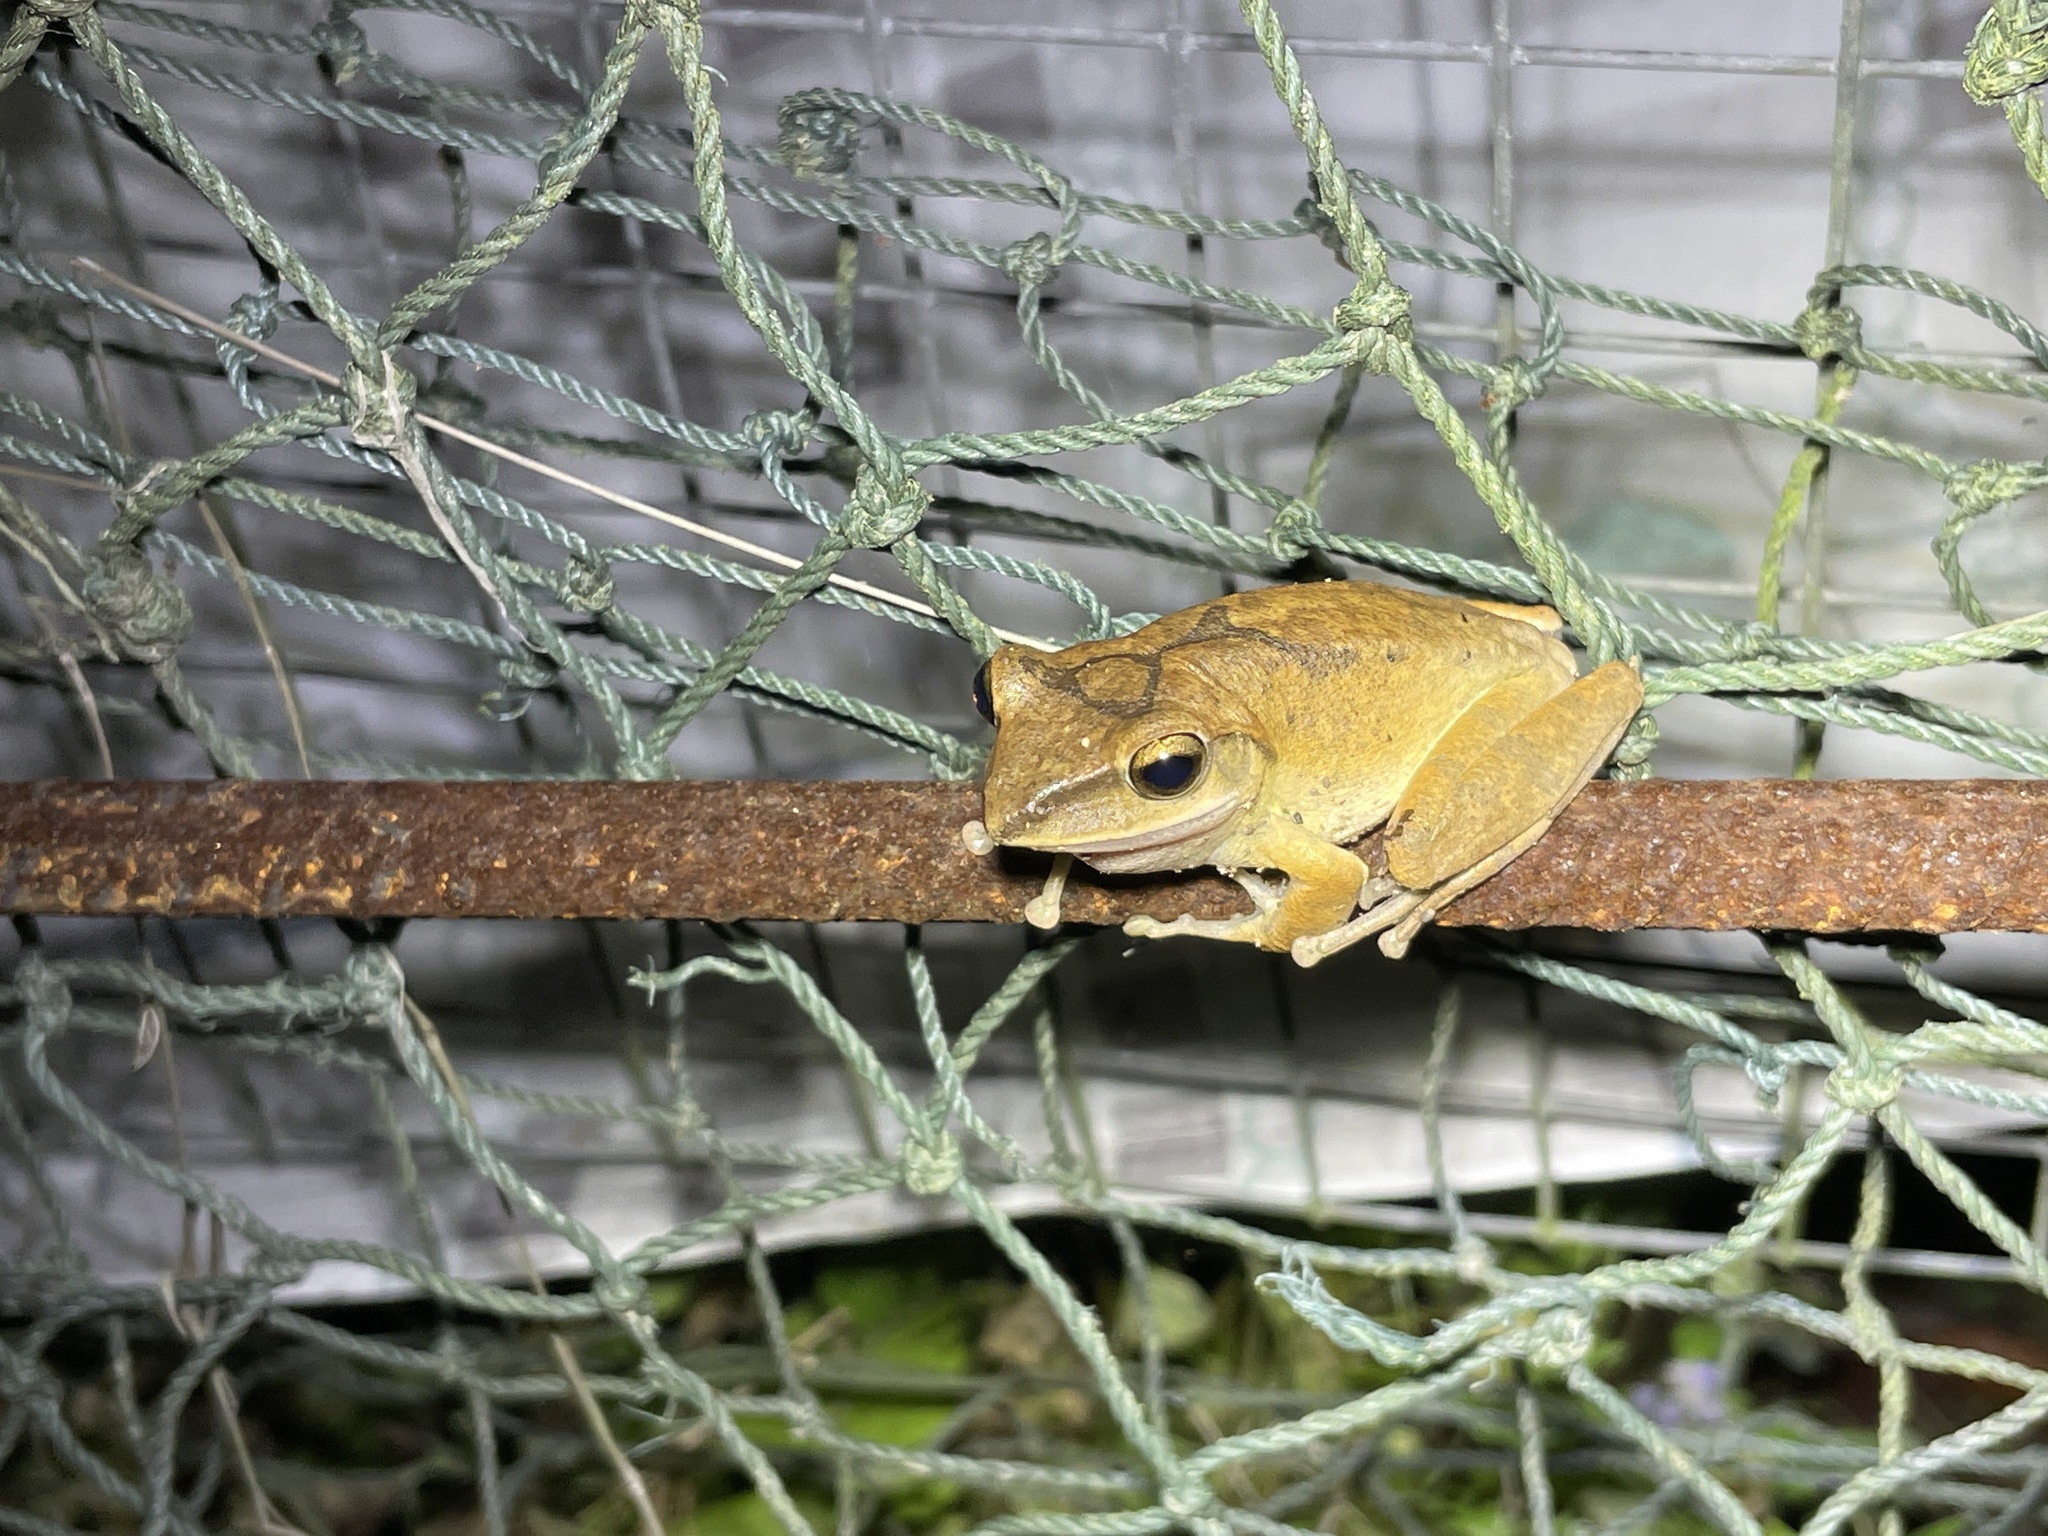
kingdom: Animalia
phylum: Chordata
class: Amphibia
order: Anura
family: Rhacophoridae
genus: Polypedates
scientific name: Polypedates megacephalus
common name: Hong kong whipping frog
